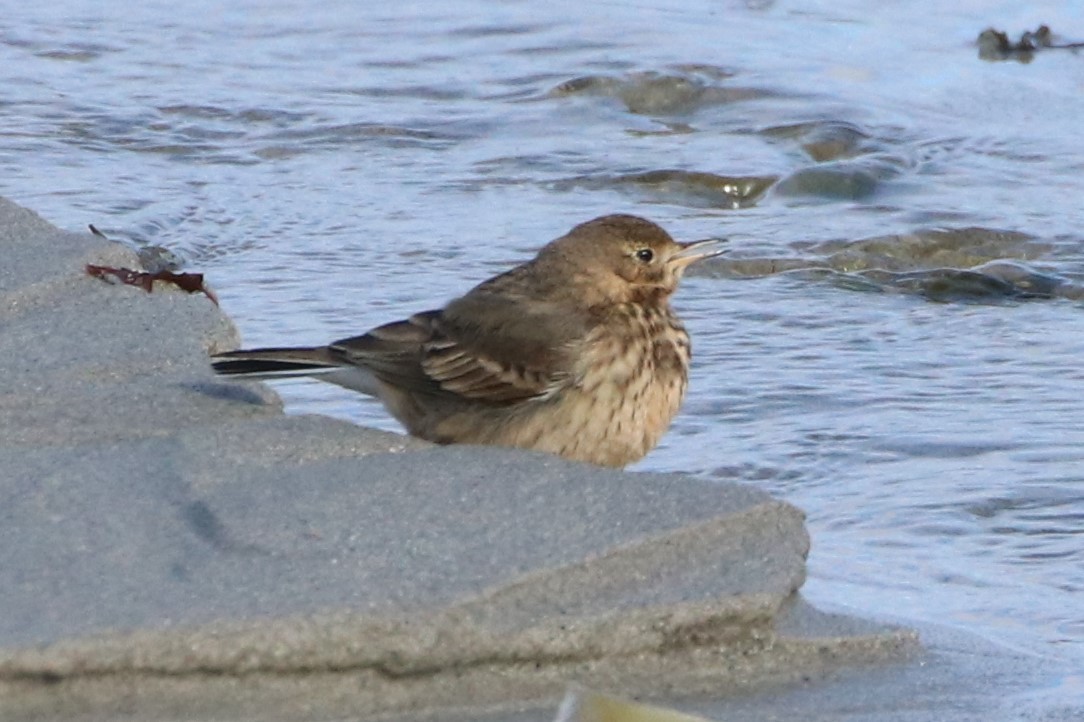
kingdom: Animalia
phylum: Chordata
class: Aves
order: Passeriformes
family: Motacillidae
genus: Anthus
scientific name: Anthus rubescens
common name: Buff-bellied pipit
